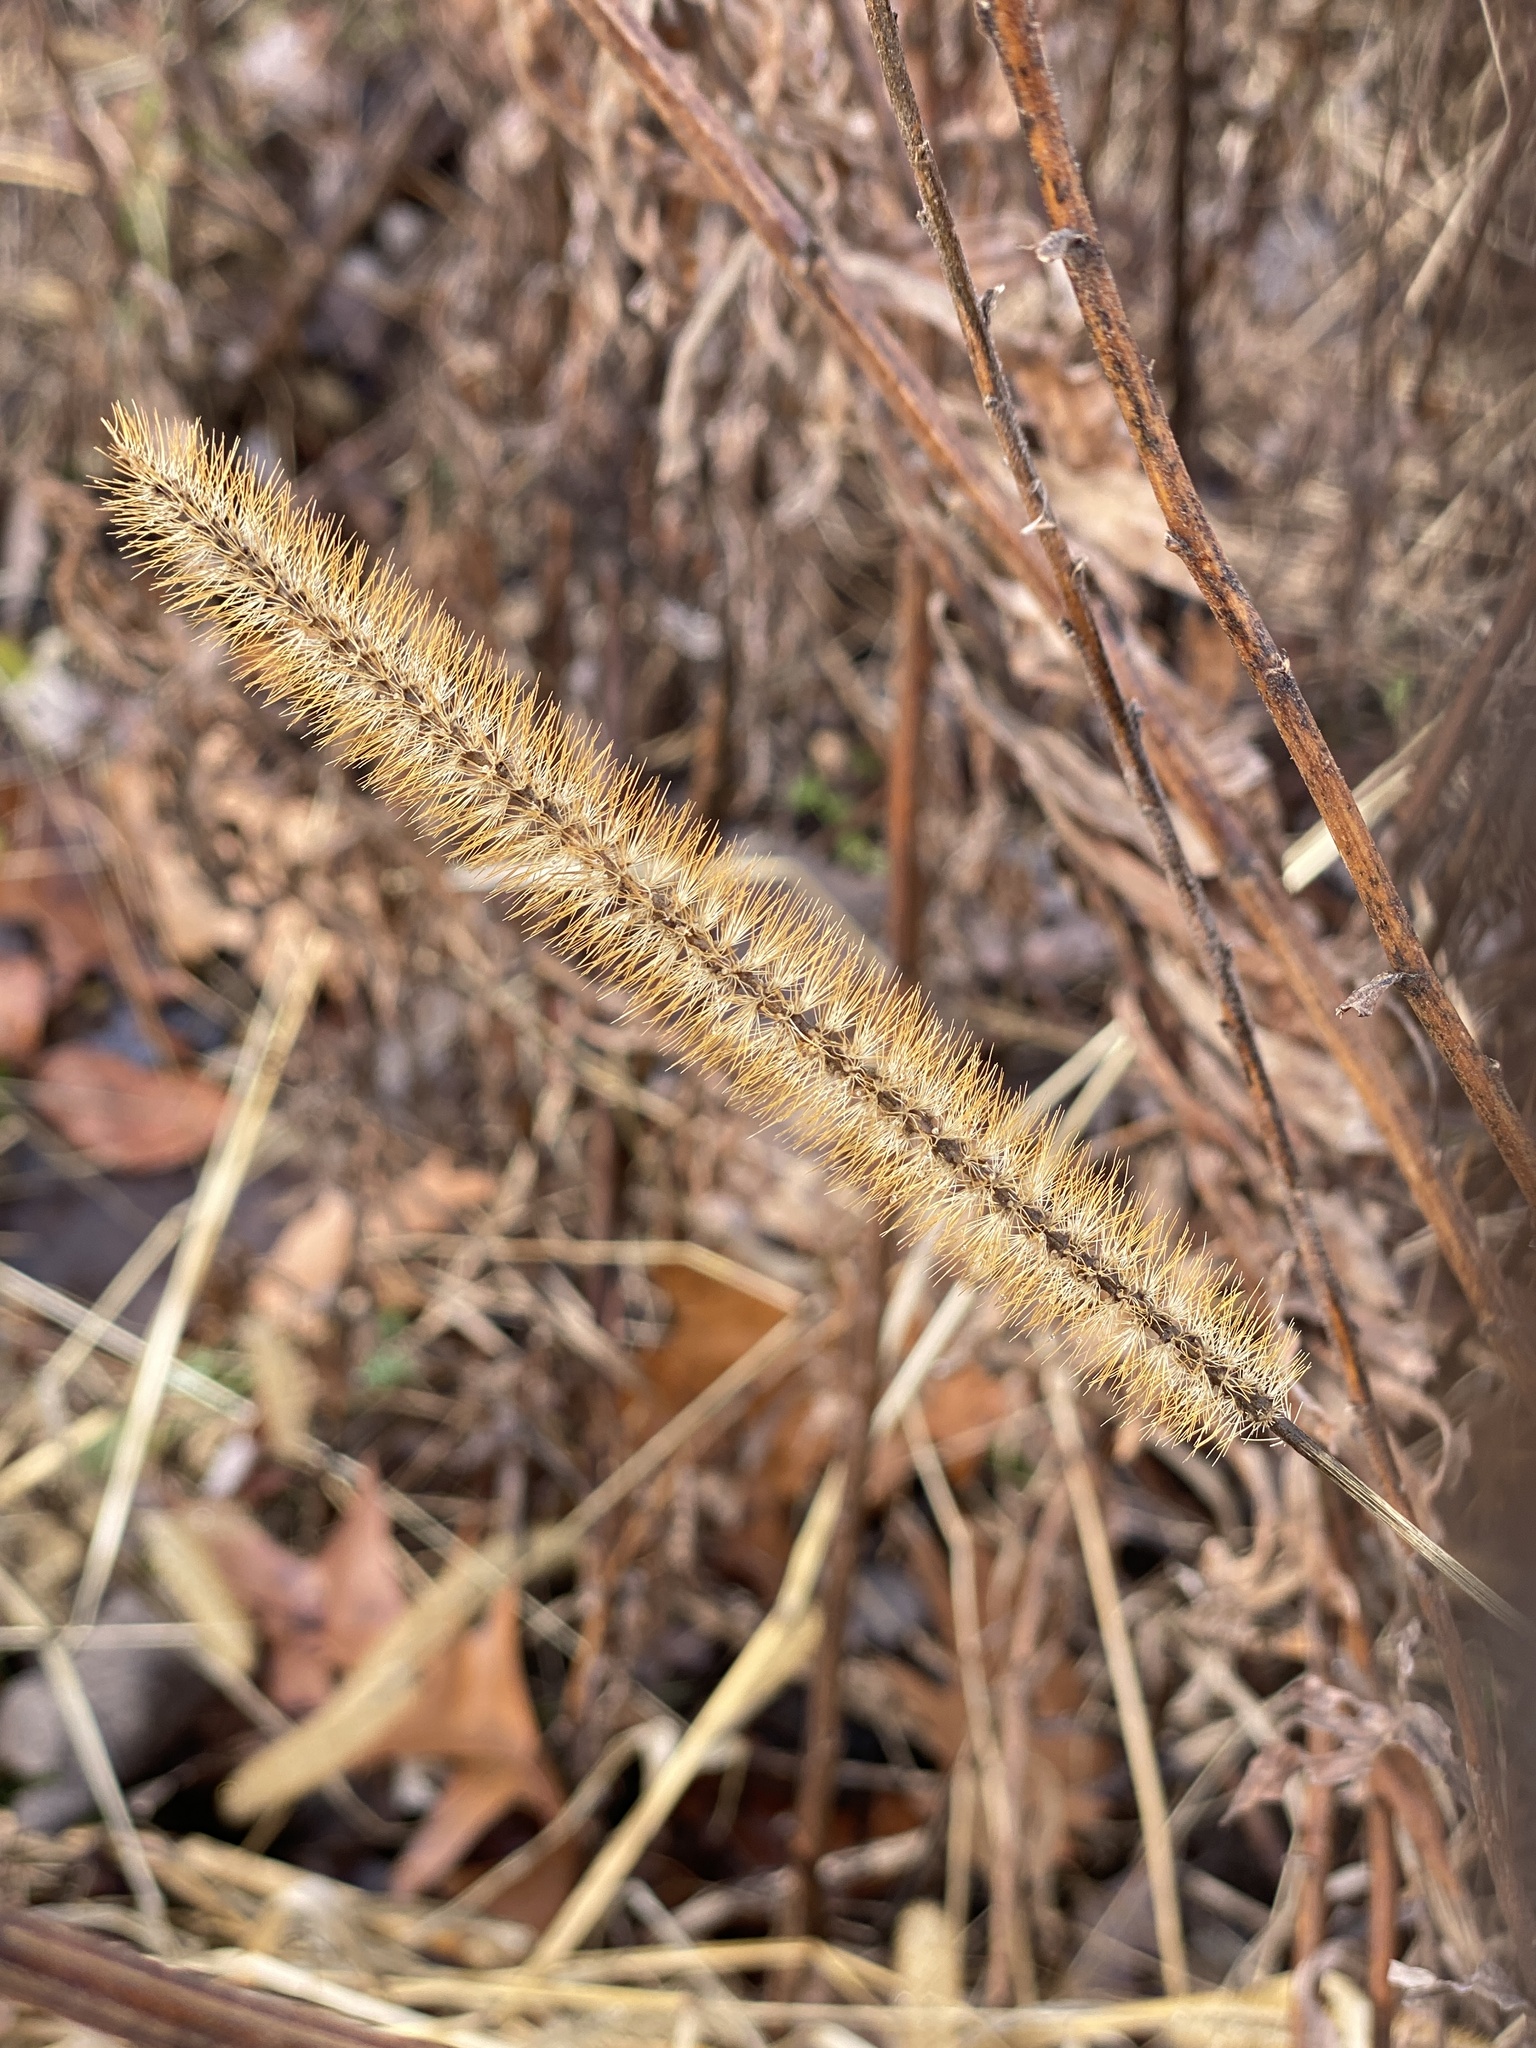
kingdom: Plantae
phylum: Tracheophyta
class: Liliopsida
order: Poales
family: Poaceae
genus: Setaria
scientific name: Setaria pumila
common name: Yellow bristle-grass
